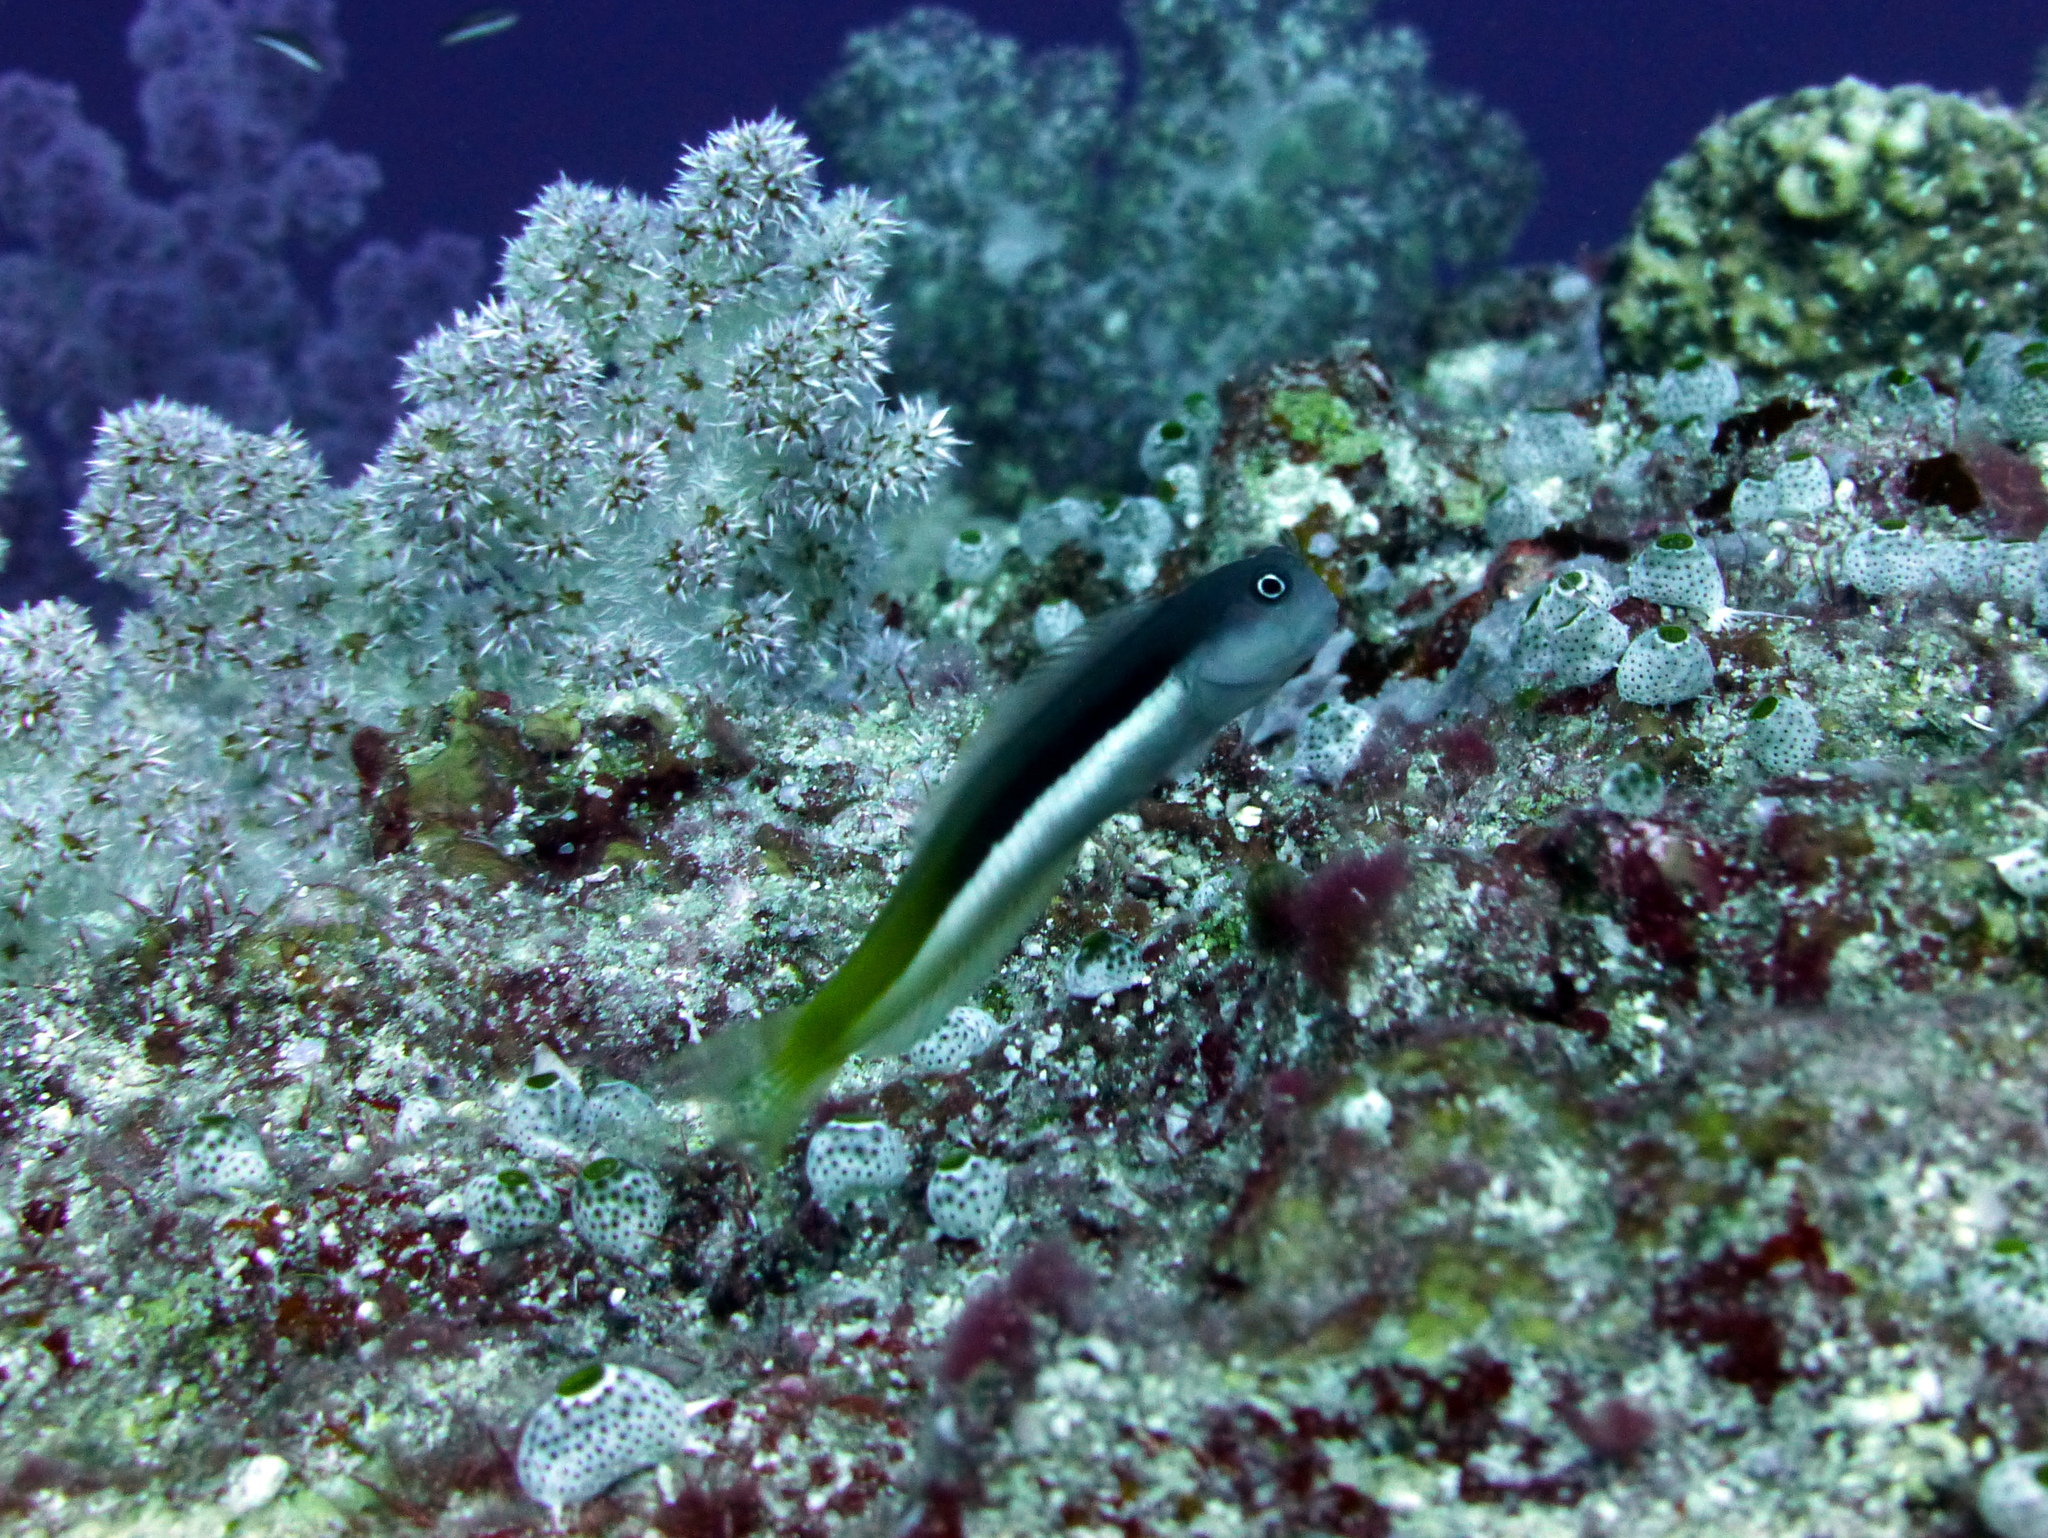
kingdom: Animalia
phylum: Chordata
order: Perciformes
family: Blenniidae
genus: Ecsenius
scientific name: Ecsenius bicolor
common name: Bicolor blenny
